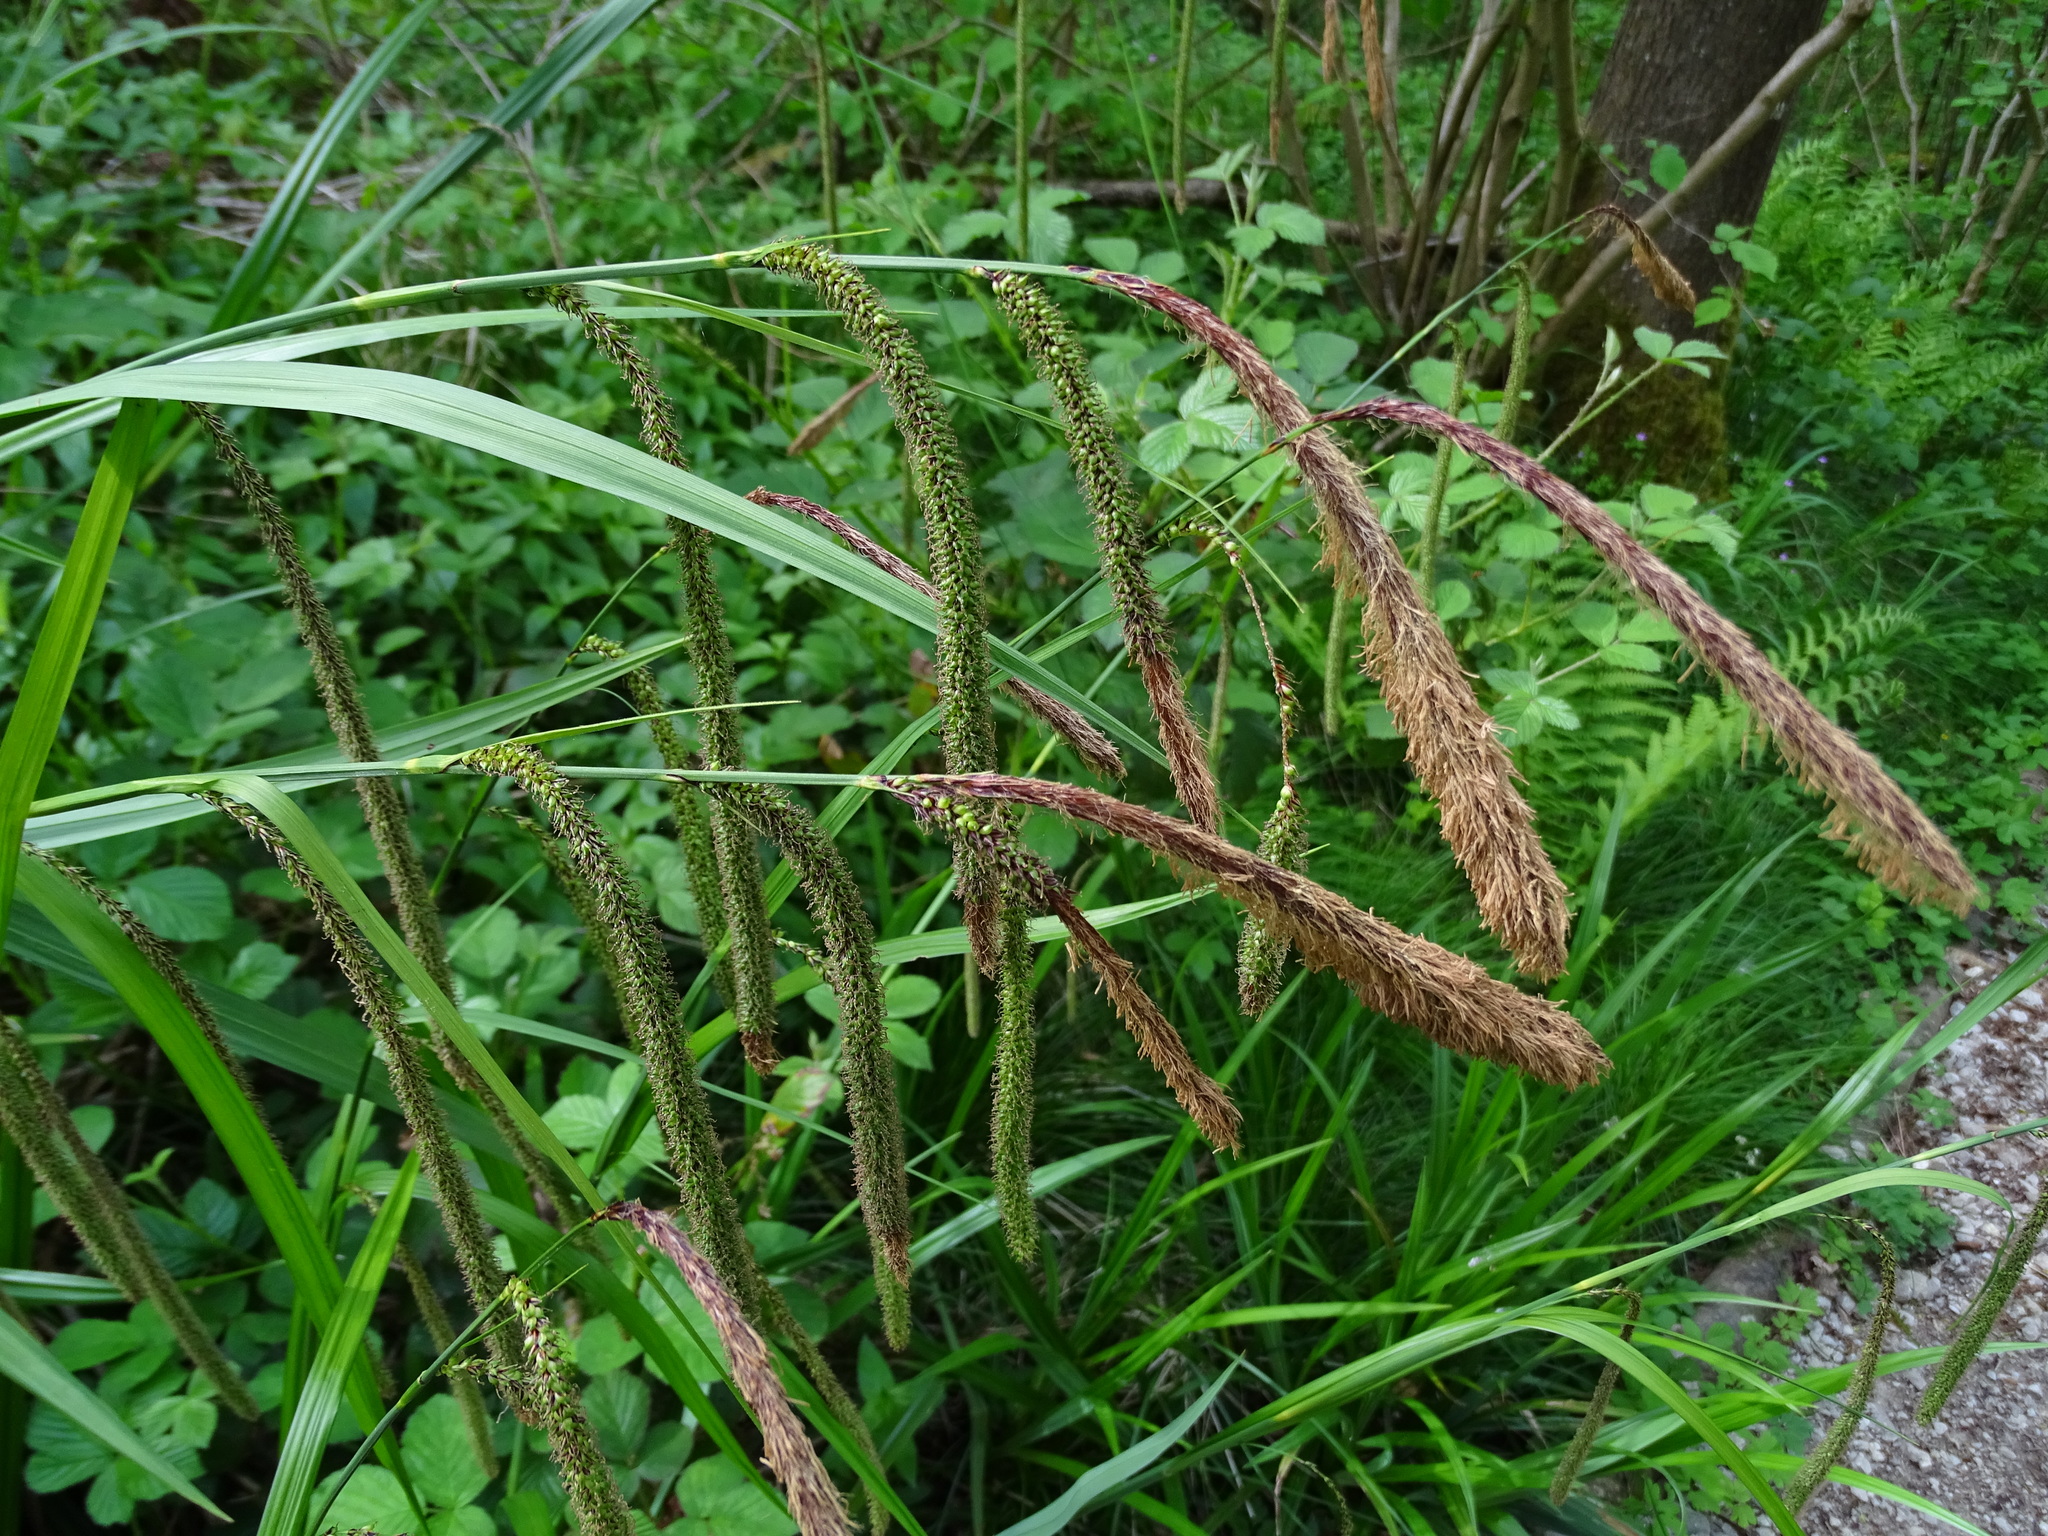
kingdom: Plantae
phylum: Tracheophyta
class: Liliopsida
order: Poales
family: Cyperaceae
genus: Carex
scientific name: Carex pendula
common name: Pendulous sedge
